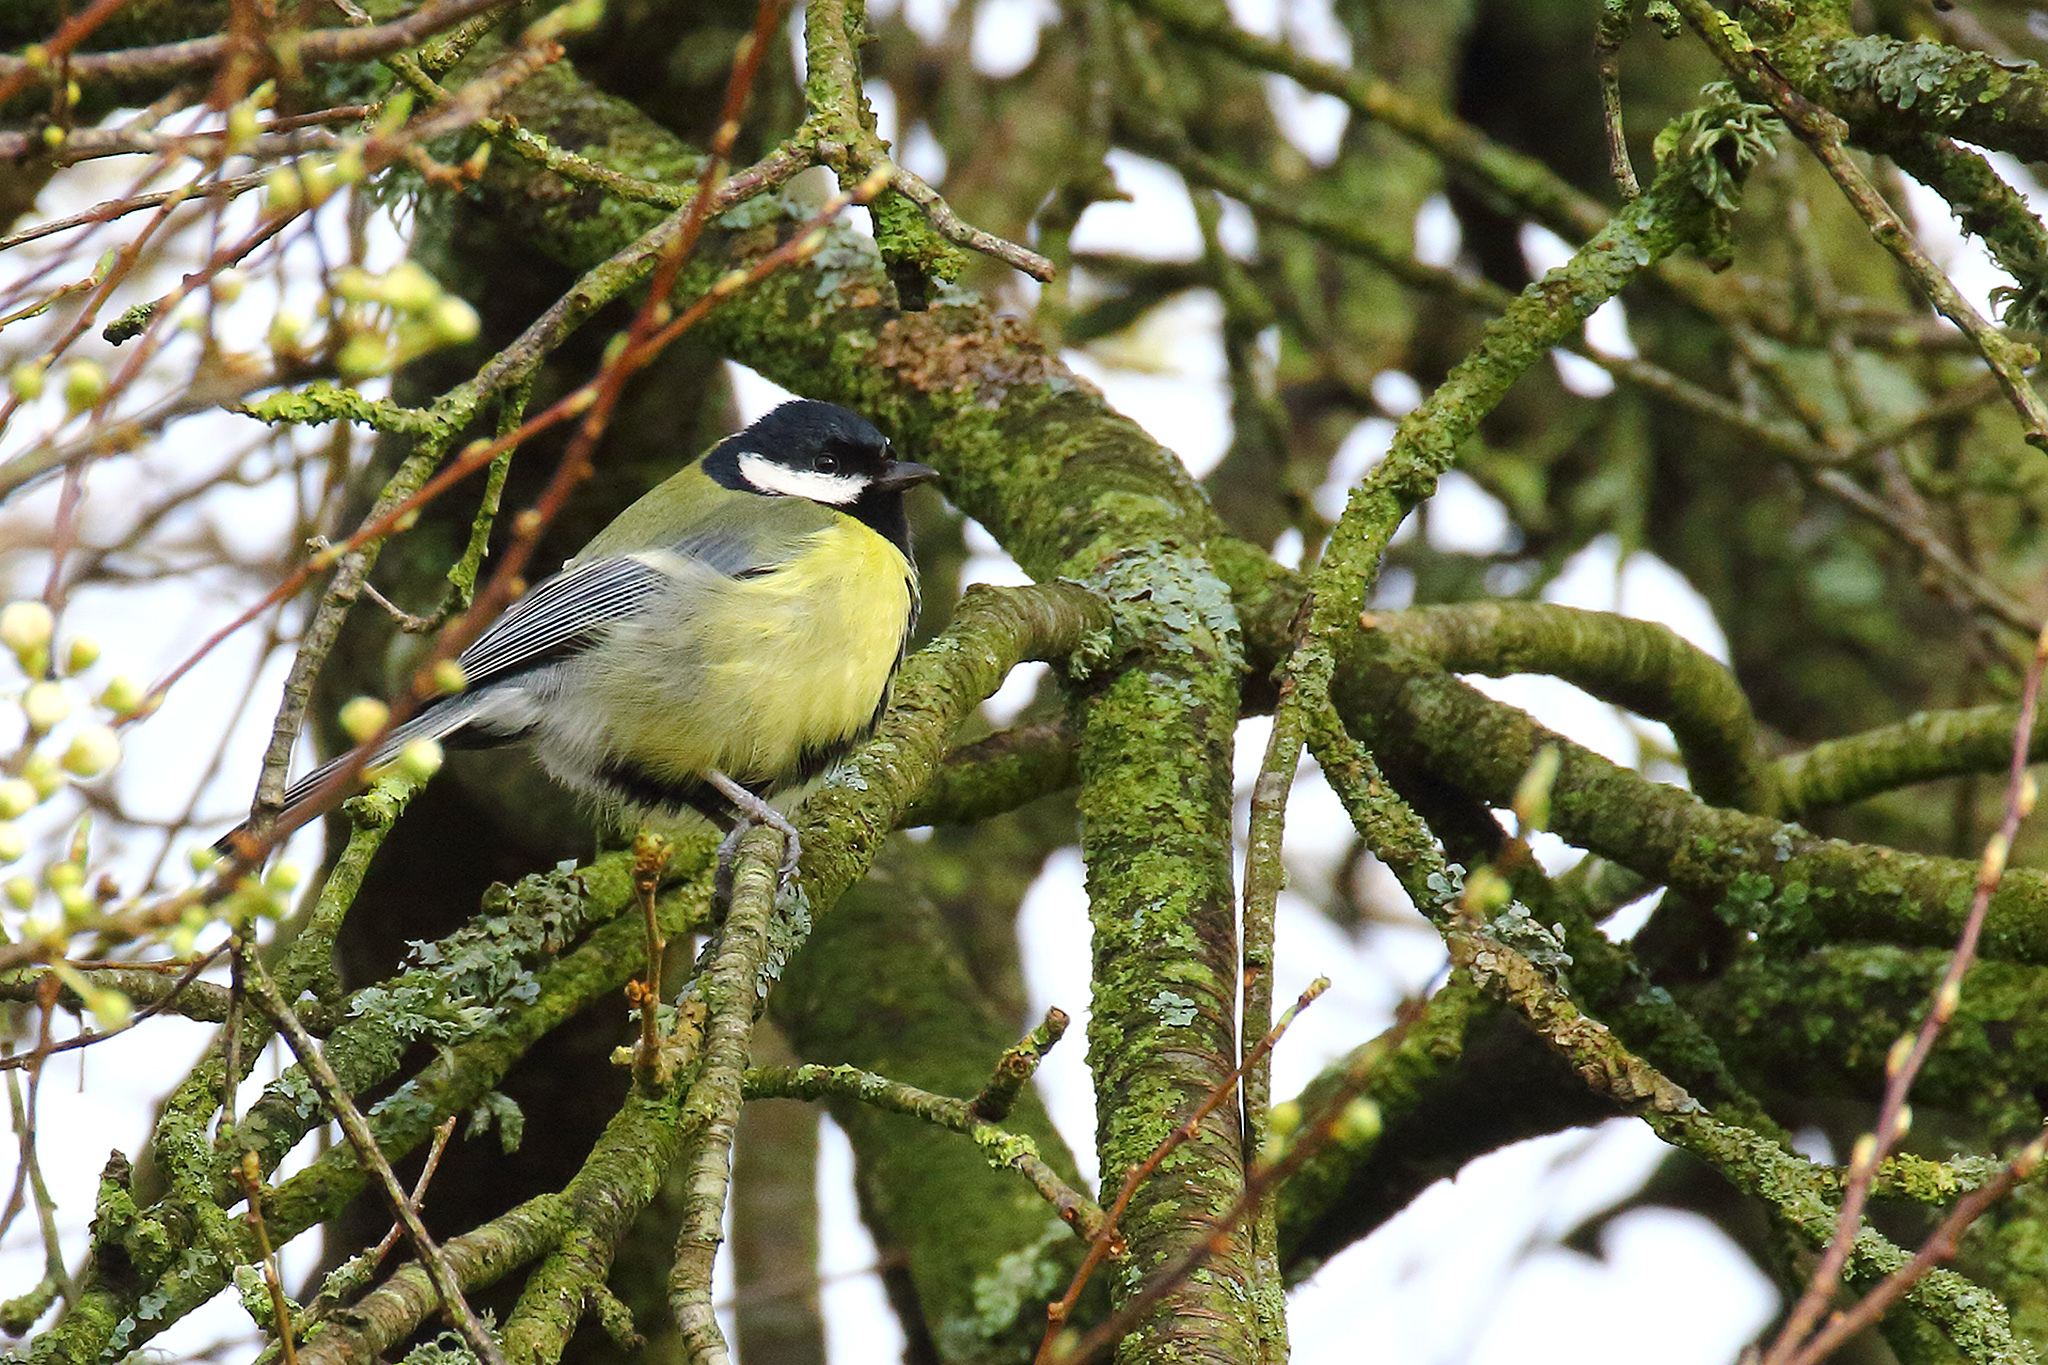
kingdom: Animalia
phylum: Chordata
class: Aves
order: Passeriformes
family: Paridae
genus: Parus
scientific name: Parus major
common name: Great tit
